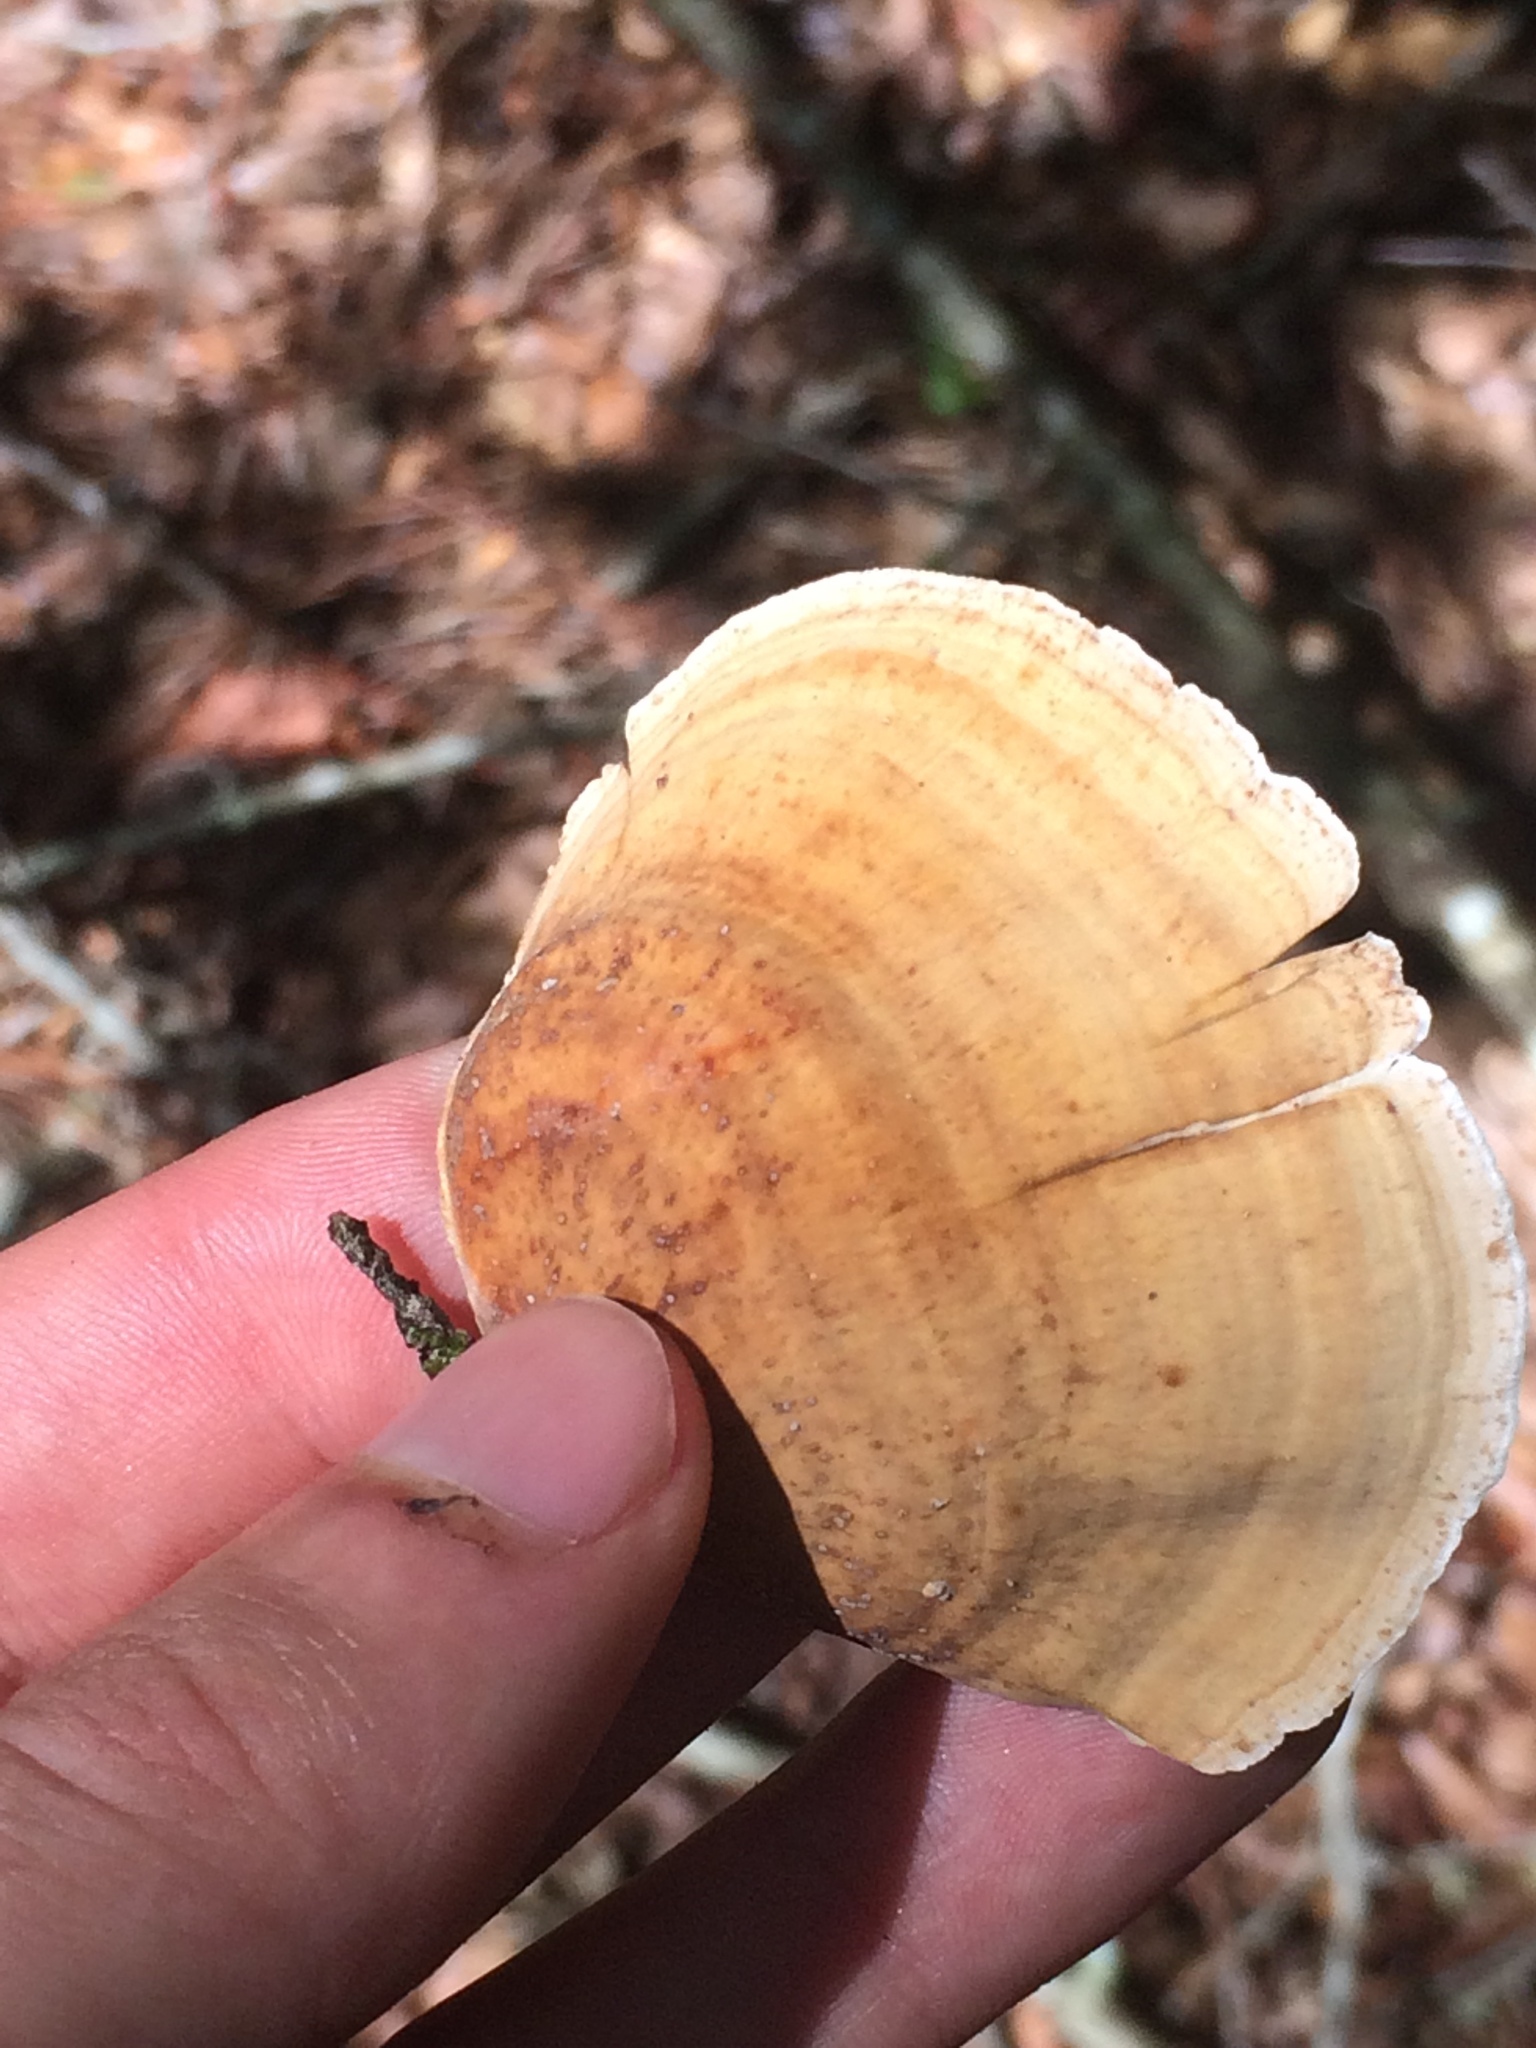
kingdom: Fungi
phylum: Basidiomycota
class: Agaricomycetes
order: Russulales
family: Stereaceae
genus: Stereum
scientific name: Stereum ostrea
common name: False turkeytail
